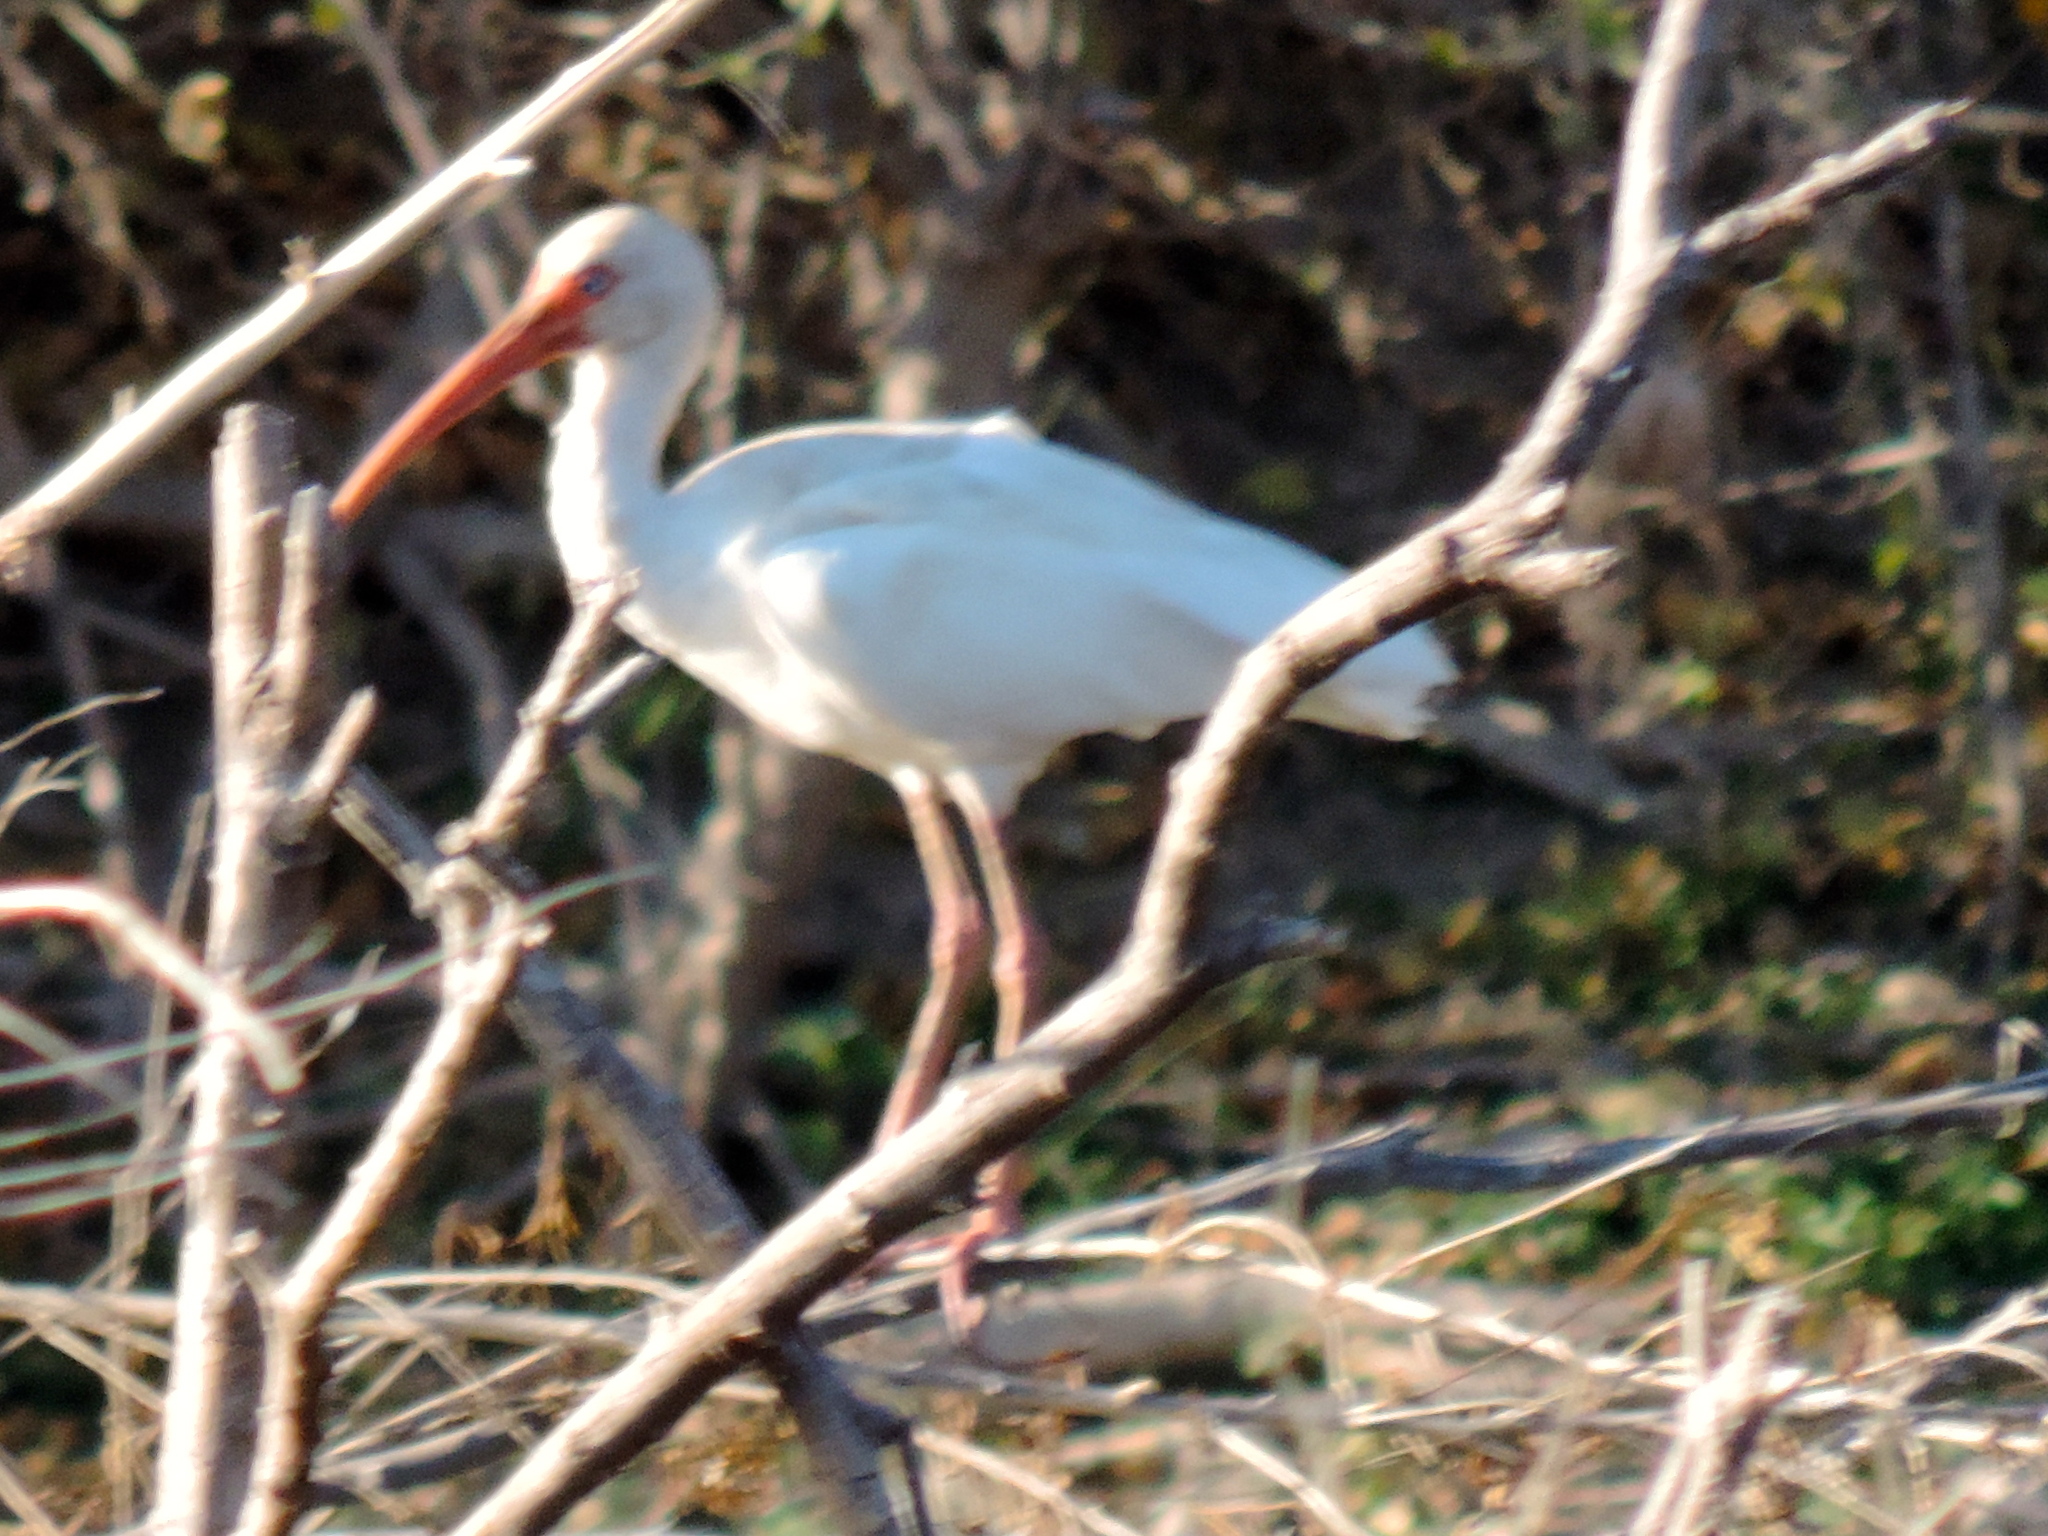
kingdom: Animalia
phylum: Chordata
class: Aves
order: Pelecaniformes
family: Threskiornithidae
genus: Eudocimus
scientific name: Eudocimus albus
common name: White ibis
